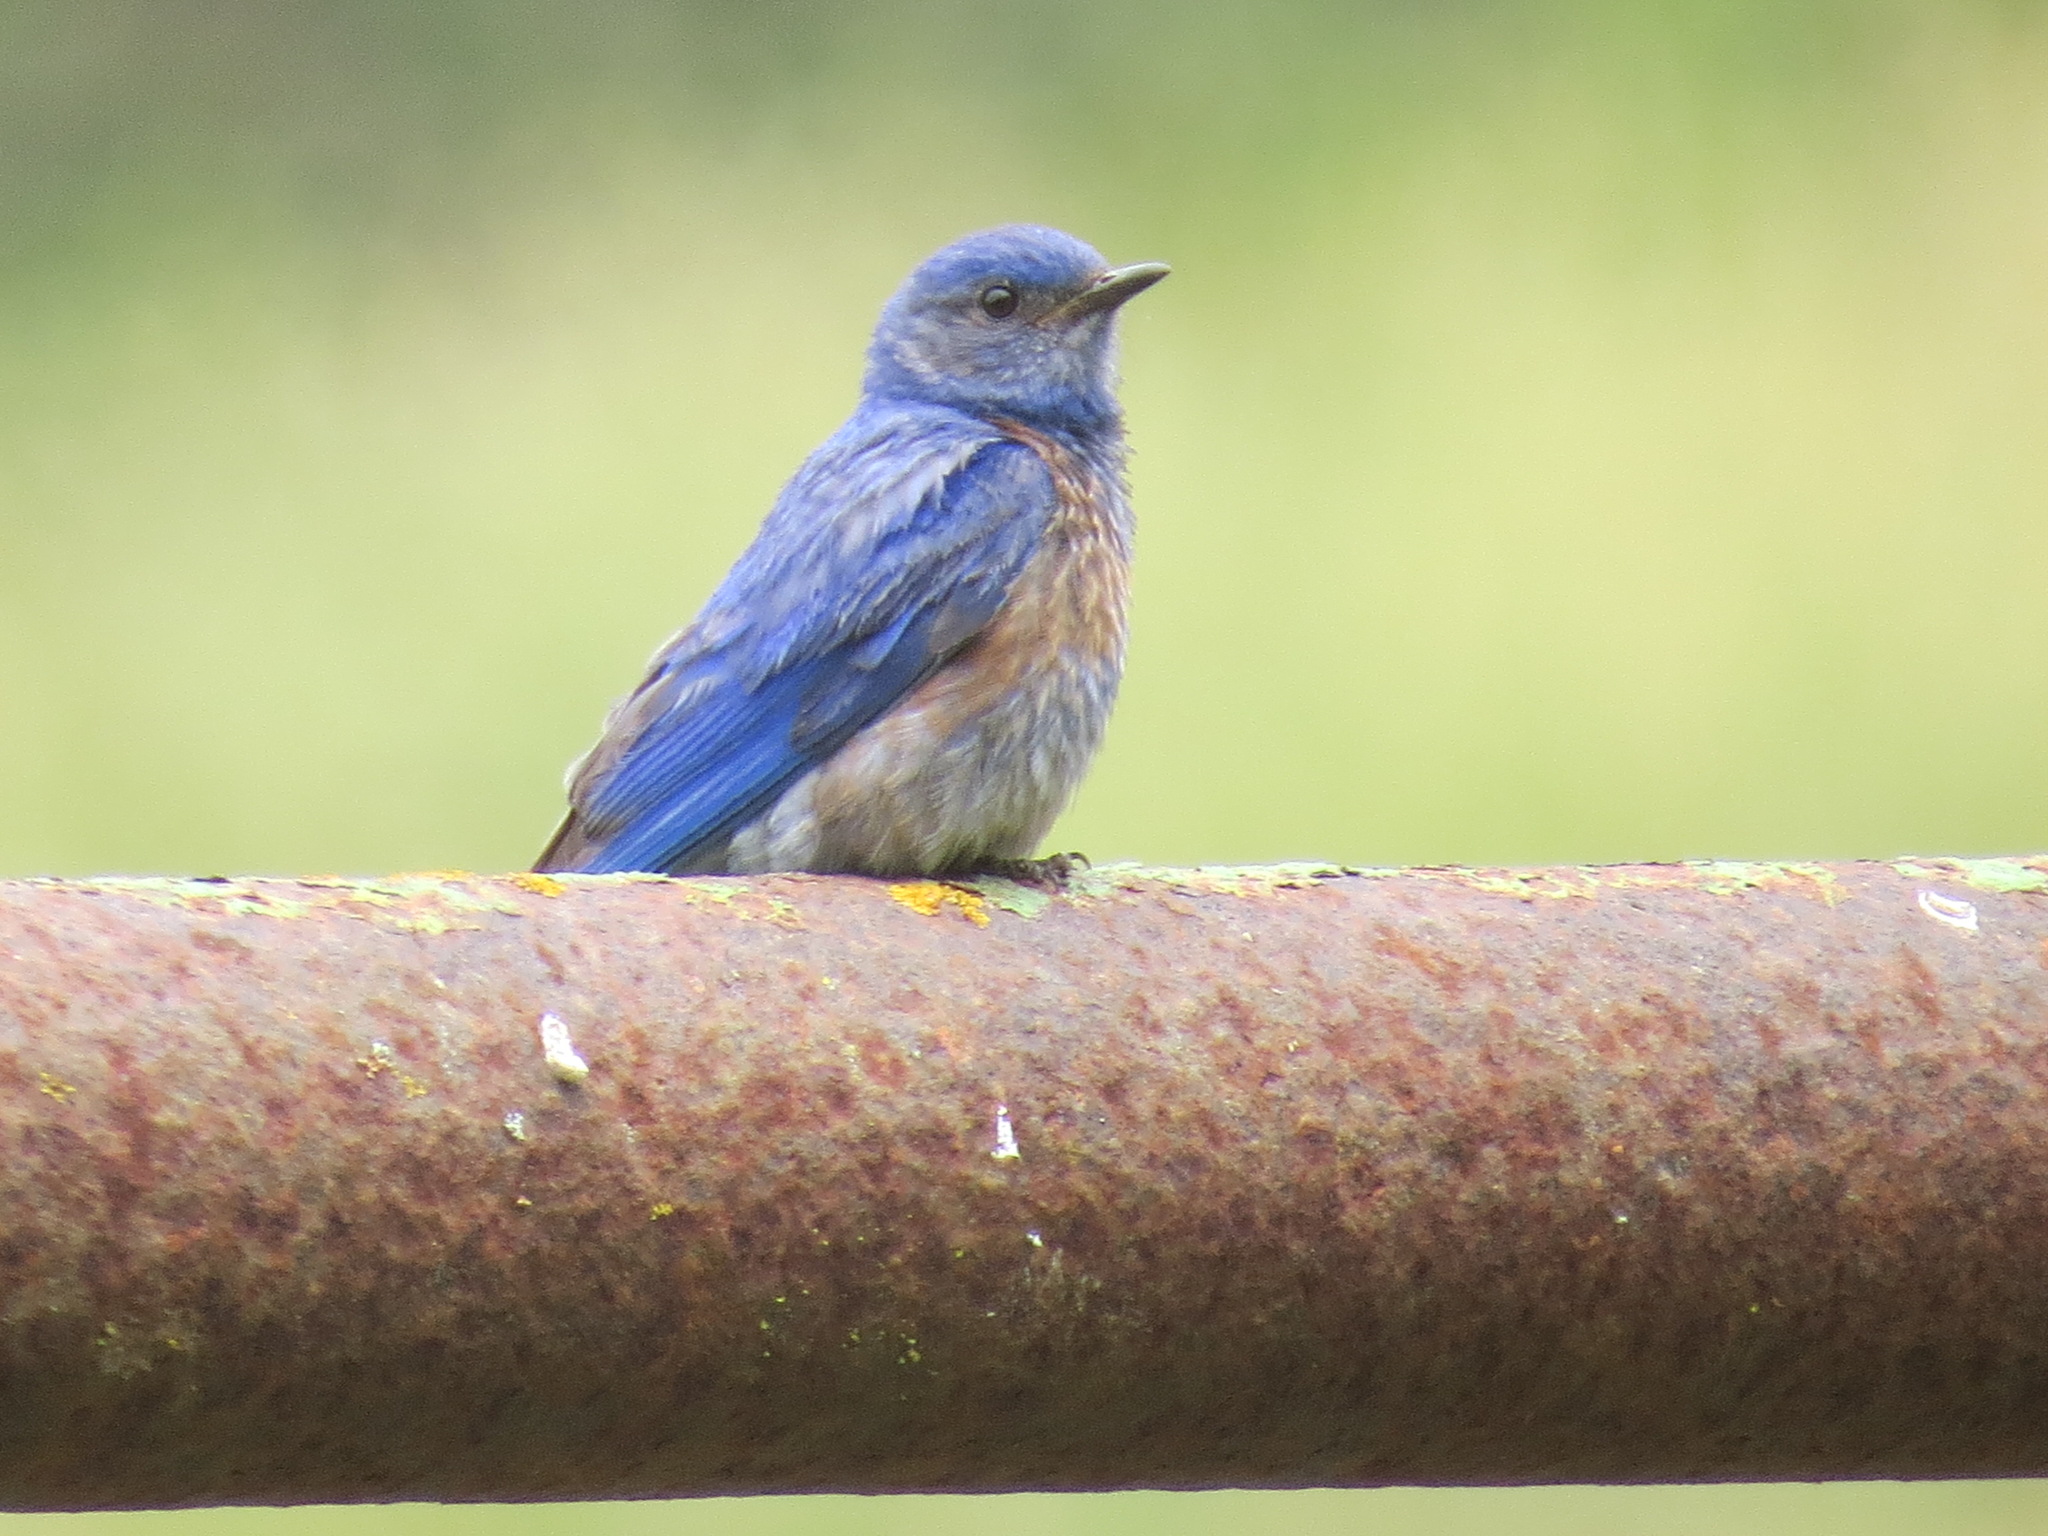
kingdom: Animalia
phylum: Chordata
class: Aves
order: Passeriformes
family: Turdidae
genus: Sialia
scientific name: Sialia mexicana
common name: Western bluebird
